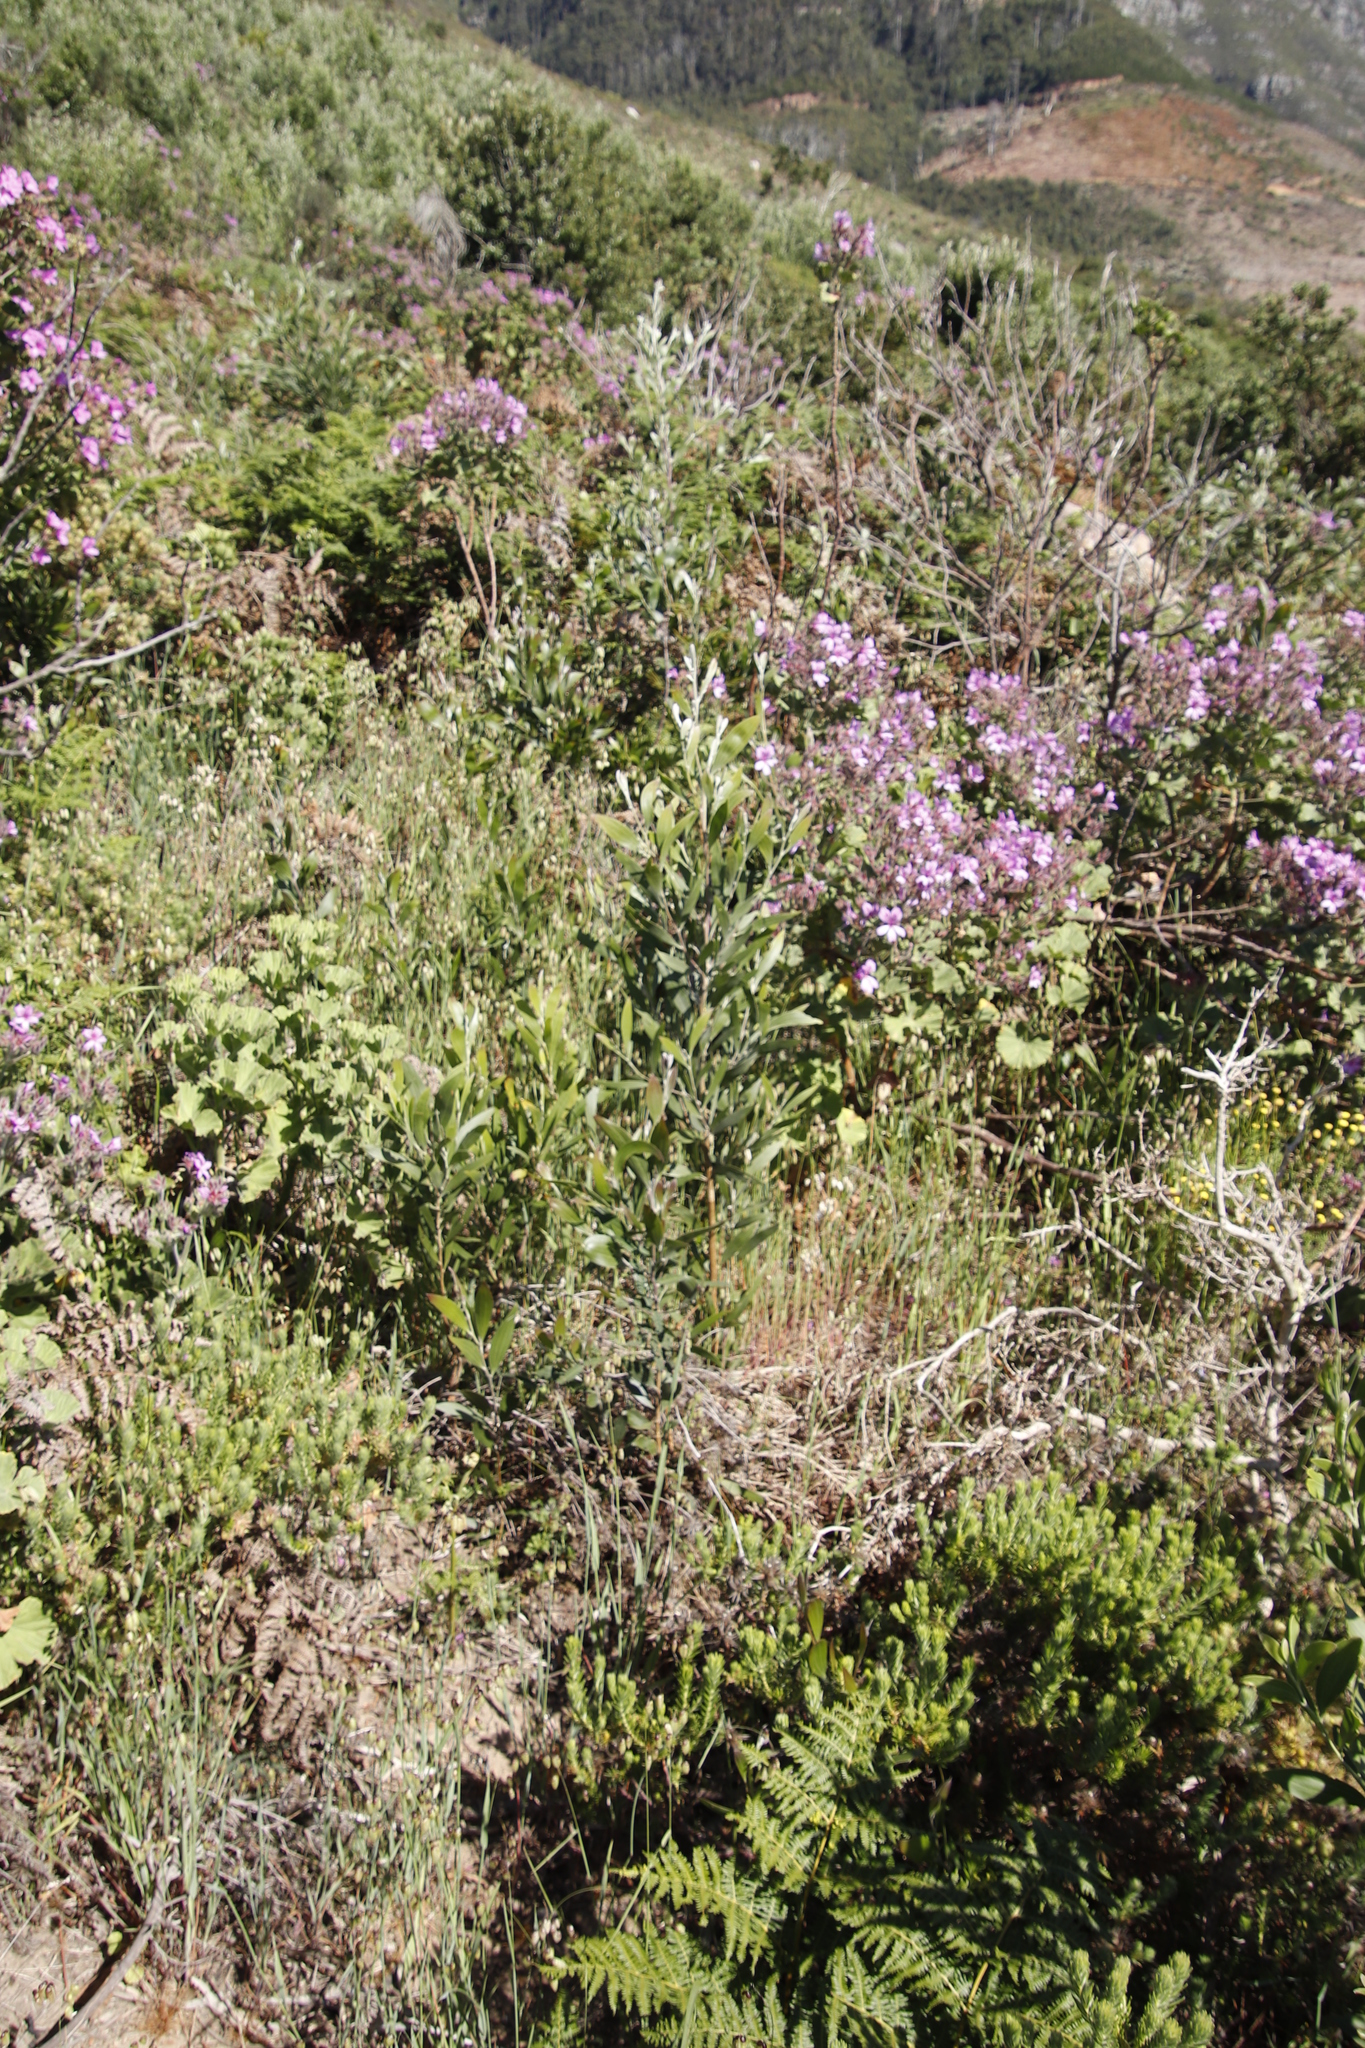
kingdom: Plantae
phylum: Tracheophyta
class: Magnoliopsida
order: Fabales
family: Fabaceae
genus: Acacia
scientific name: Acacia melanoxylon
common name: Blackwood
